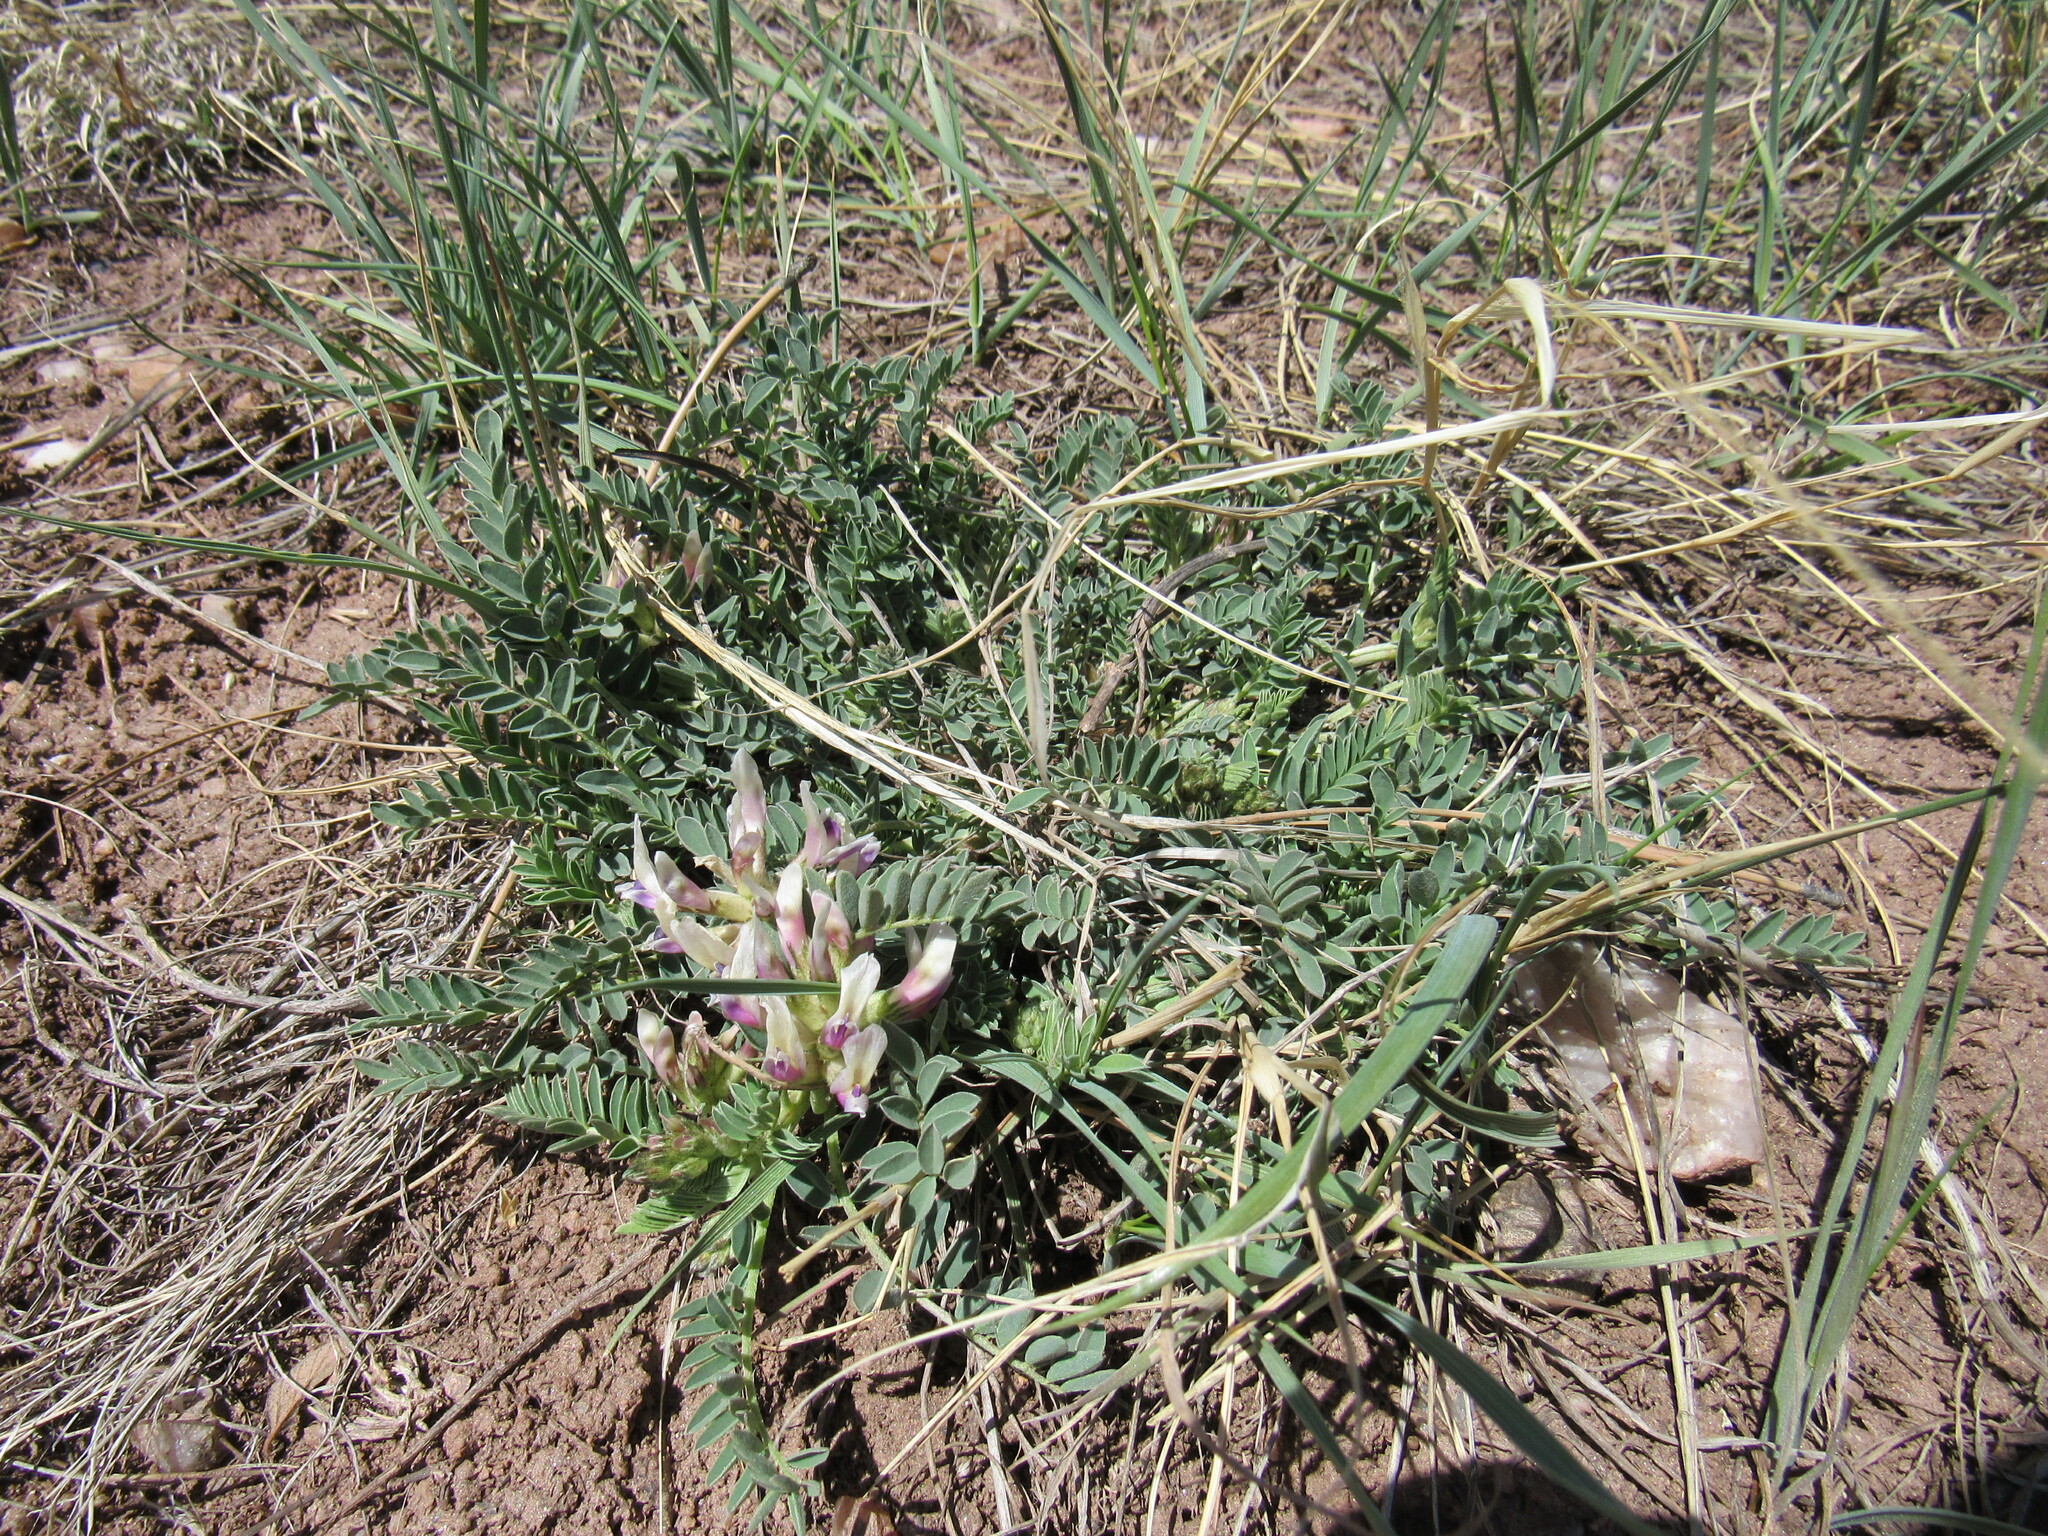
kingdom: Plantae
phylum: Tracheophyta
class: Magnoliopsida
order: Fabales
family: Fabaceae
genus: Astragalus
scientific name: Astragalus crassicarpus
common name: Ground-plum milk-vetch
